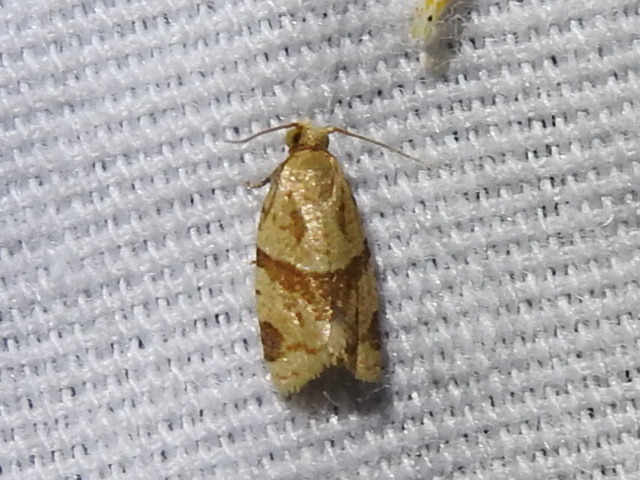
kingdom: Animalia
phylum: Arthropoda
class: Insecta
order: Lepidoptera
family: Tortricidae
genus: Clepsis
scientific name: Clepsis peritana
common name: Garden tortrix
